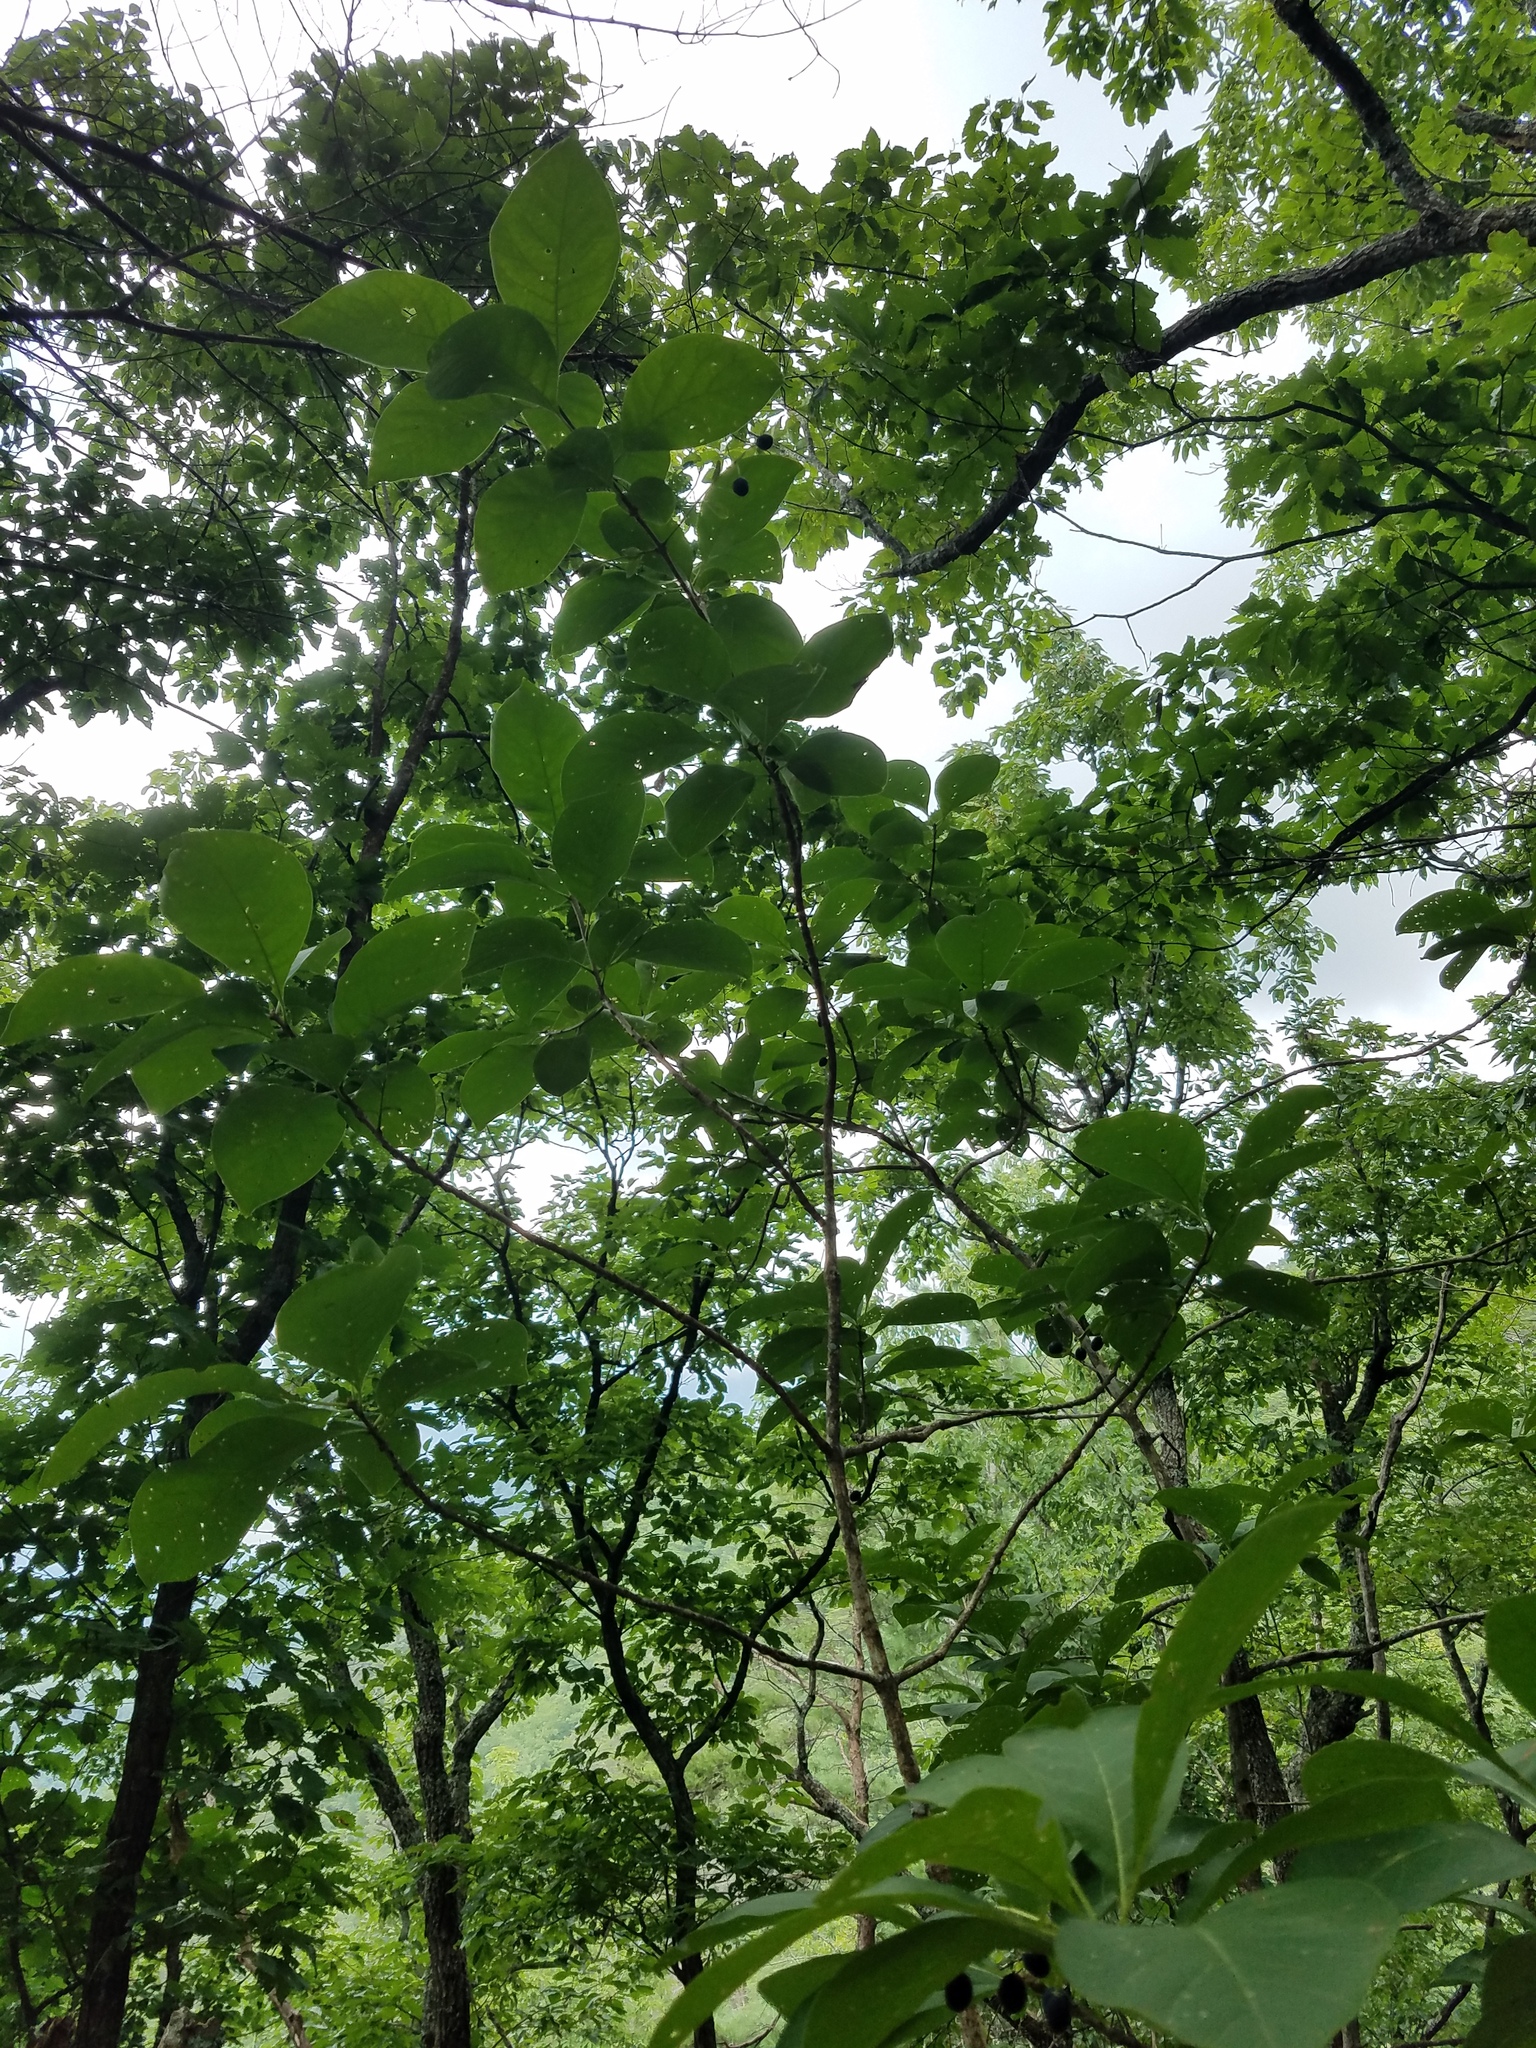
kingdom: Plantae
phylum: Tracheophyta
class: Magnoliopsida
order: Lamiales
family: Oleaceae
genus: Chionanthus
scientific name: Chionanthus virginicus
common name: American fringetree
